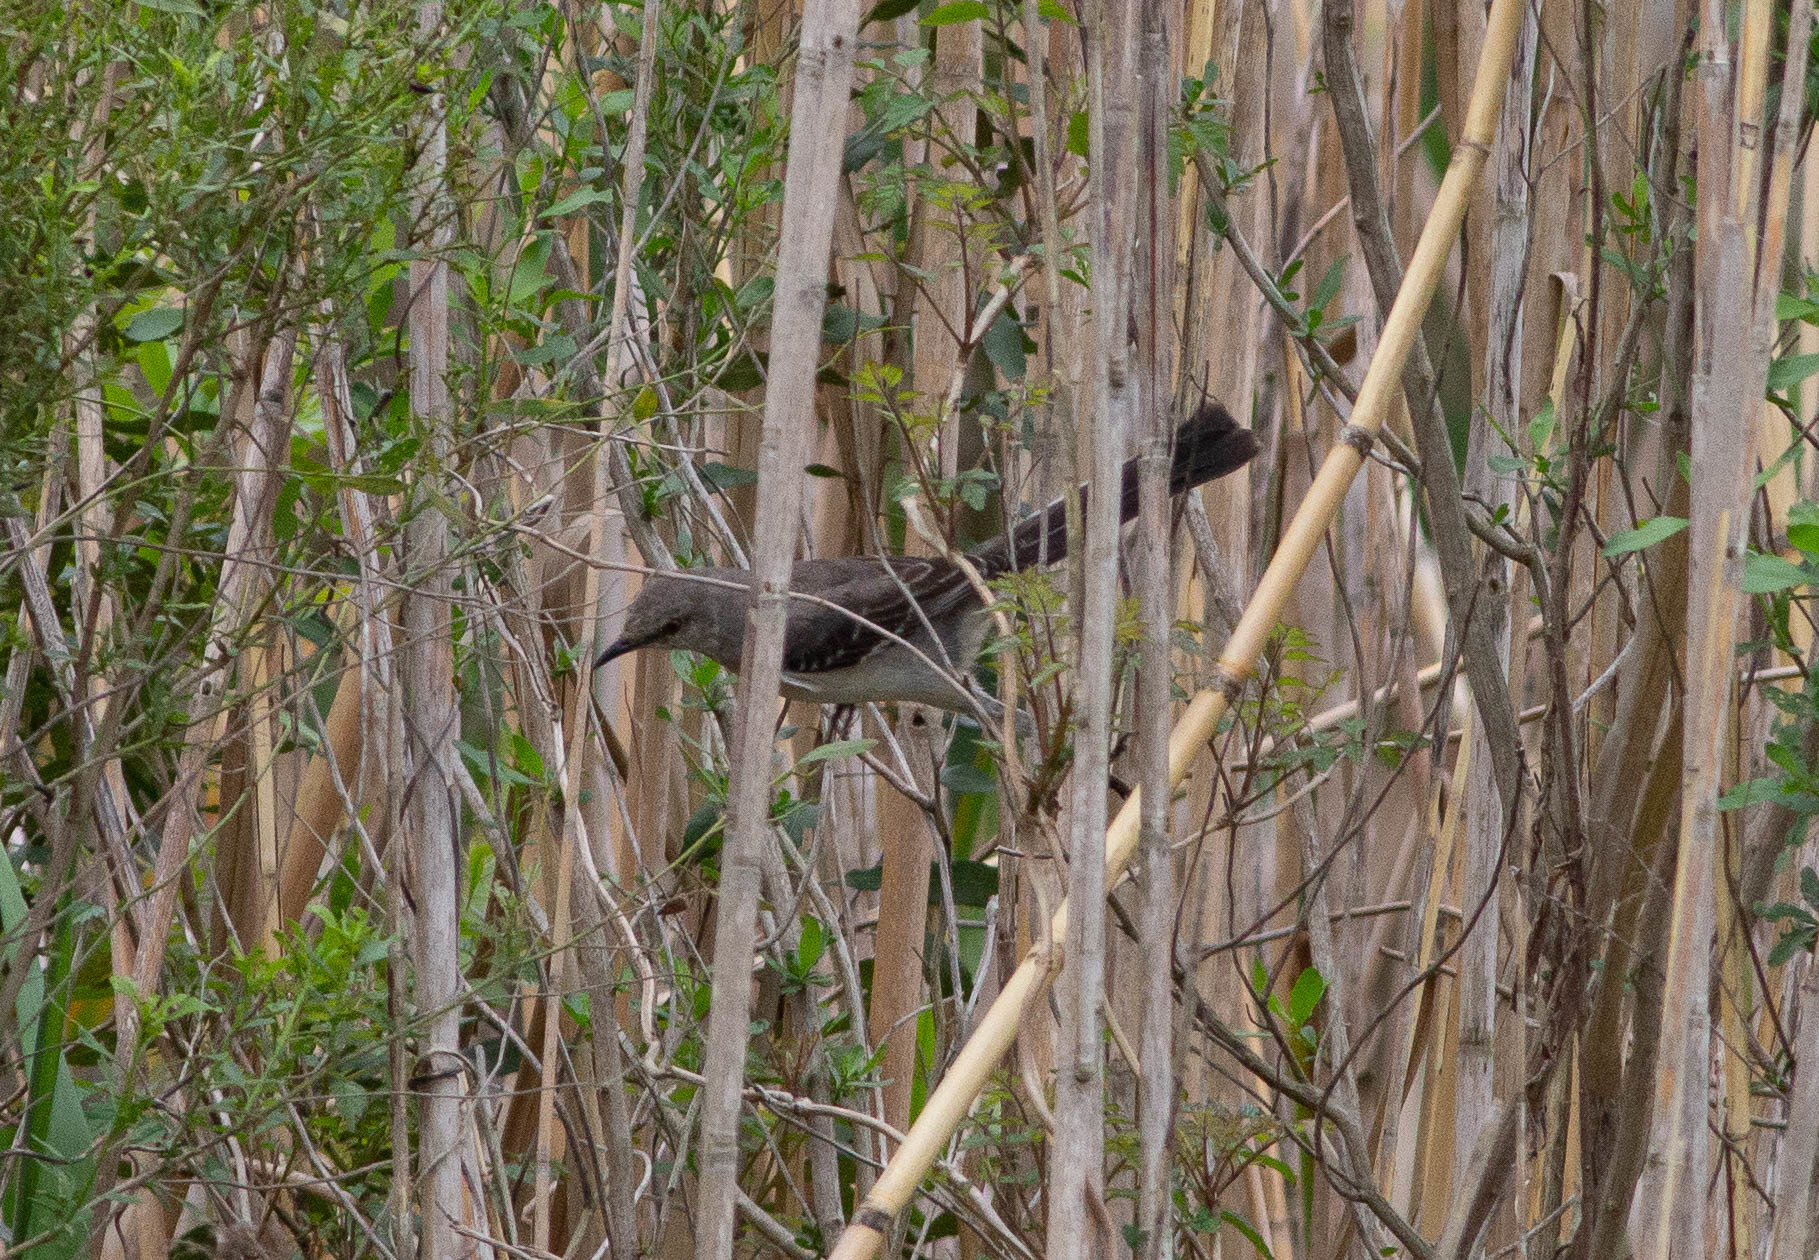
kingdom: Animalia
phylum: Chordata
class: Aves
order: Passeriformes
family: Mimidae
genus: Mimus
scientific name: Mimus polyglottos
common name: Northern mockingbird
